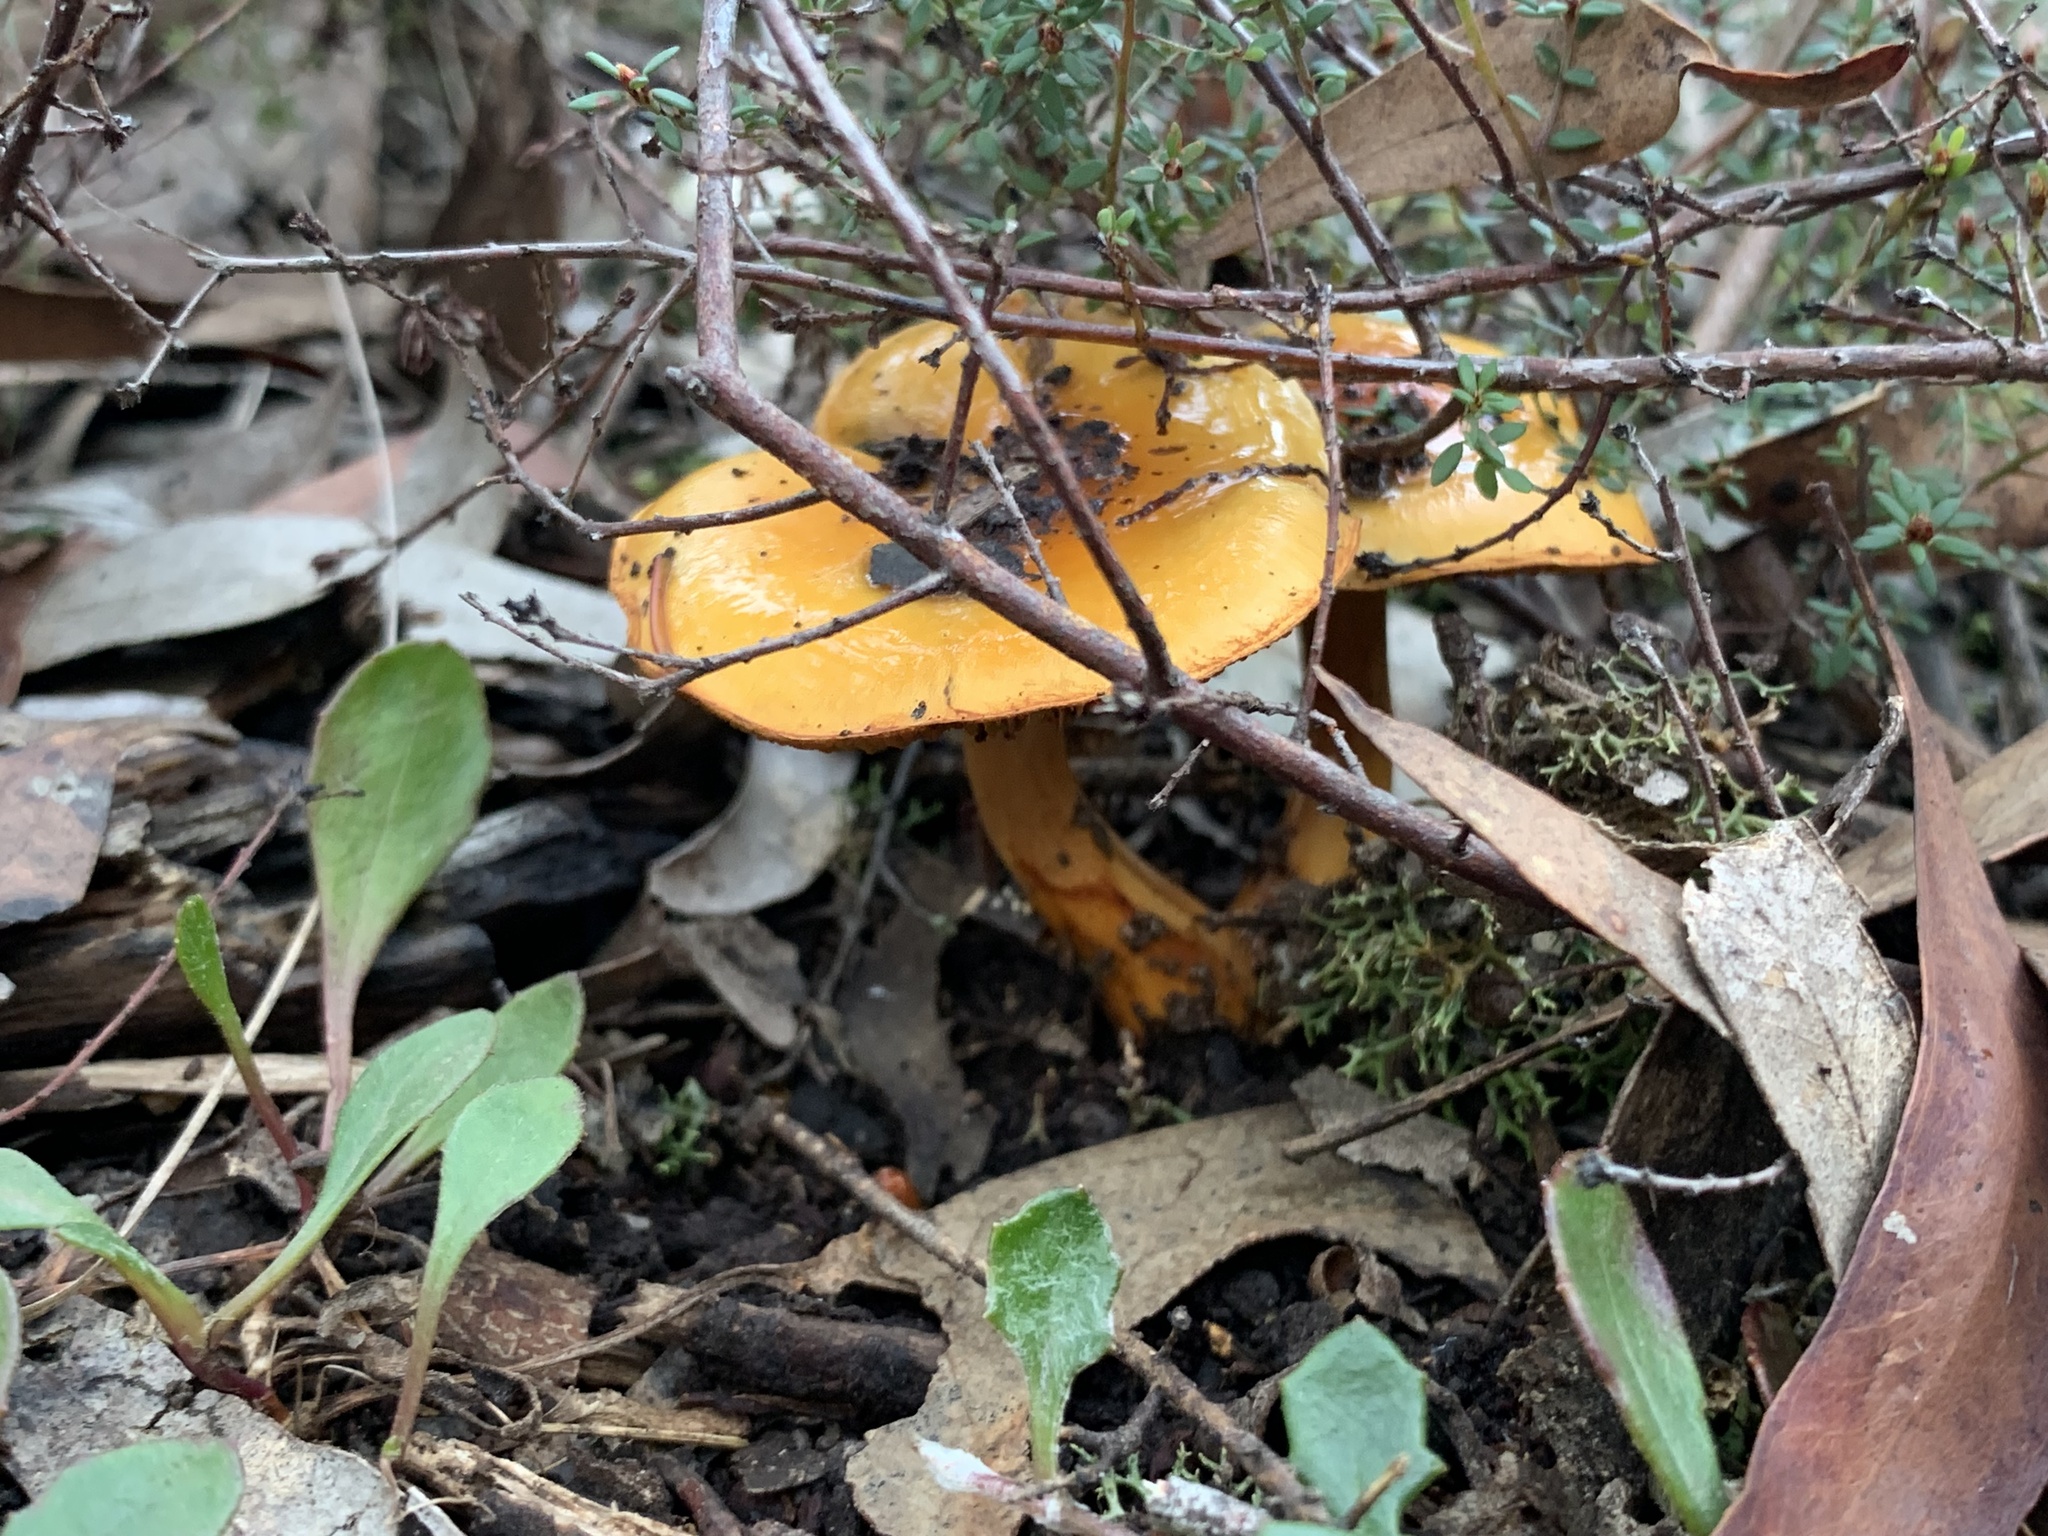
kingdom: Fungi
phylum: Basidiomycota
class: Agaricomycetes
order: Agaricales
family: Cortinariaceae
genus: Cortinarius
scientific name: Cortinarius sinapicolor
